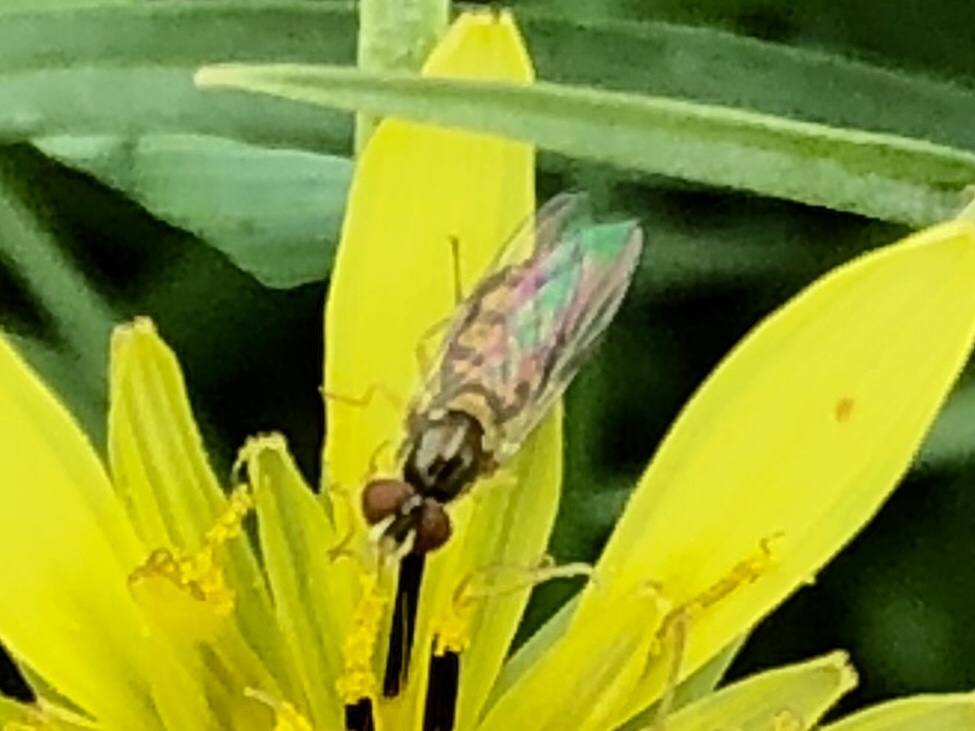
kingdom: Animalia
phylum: Arthropoda
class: Insecta
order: Diptera
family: Syrphidae
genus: Toxomerus
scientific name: Toxomerus marginatus
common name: Syrphid fly
